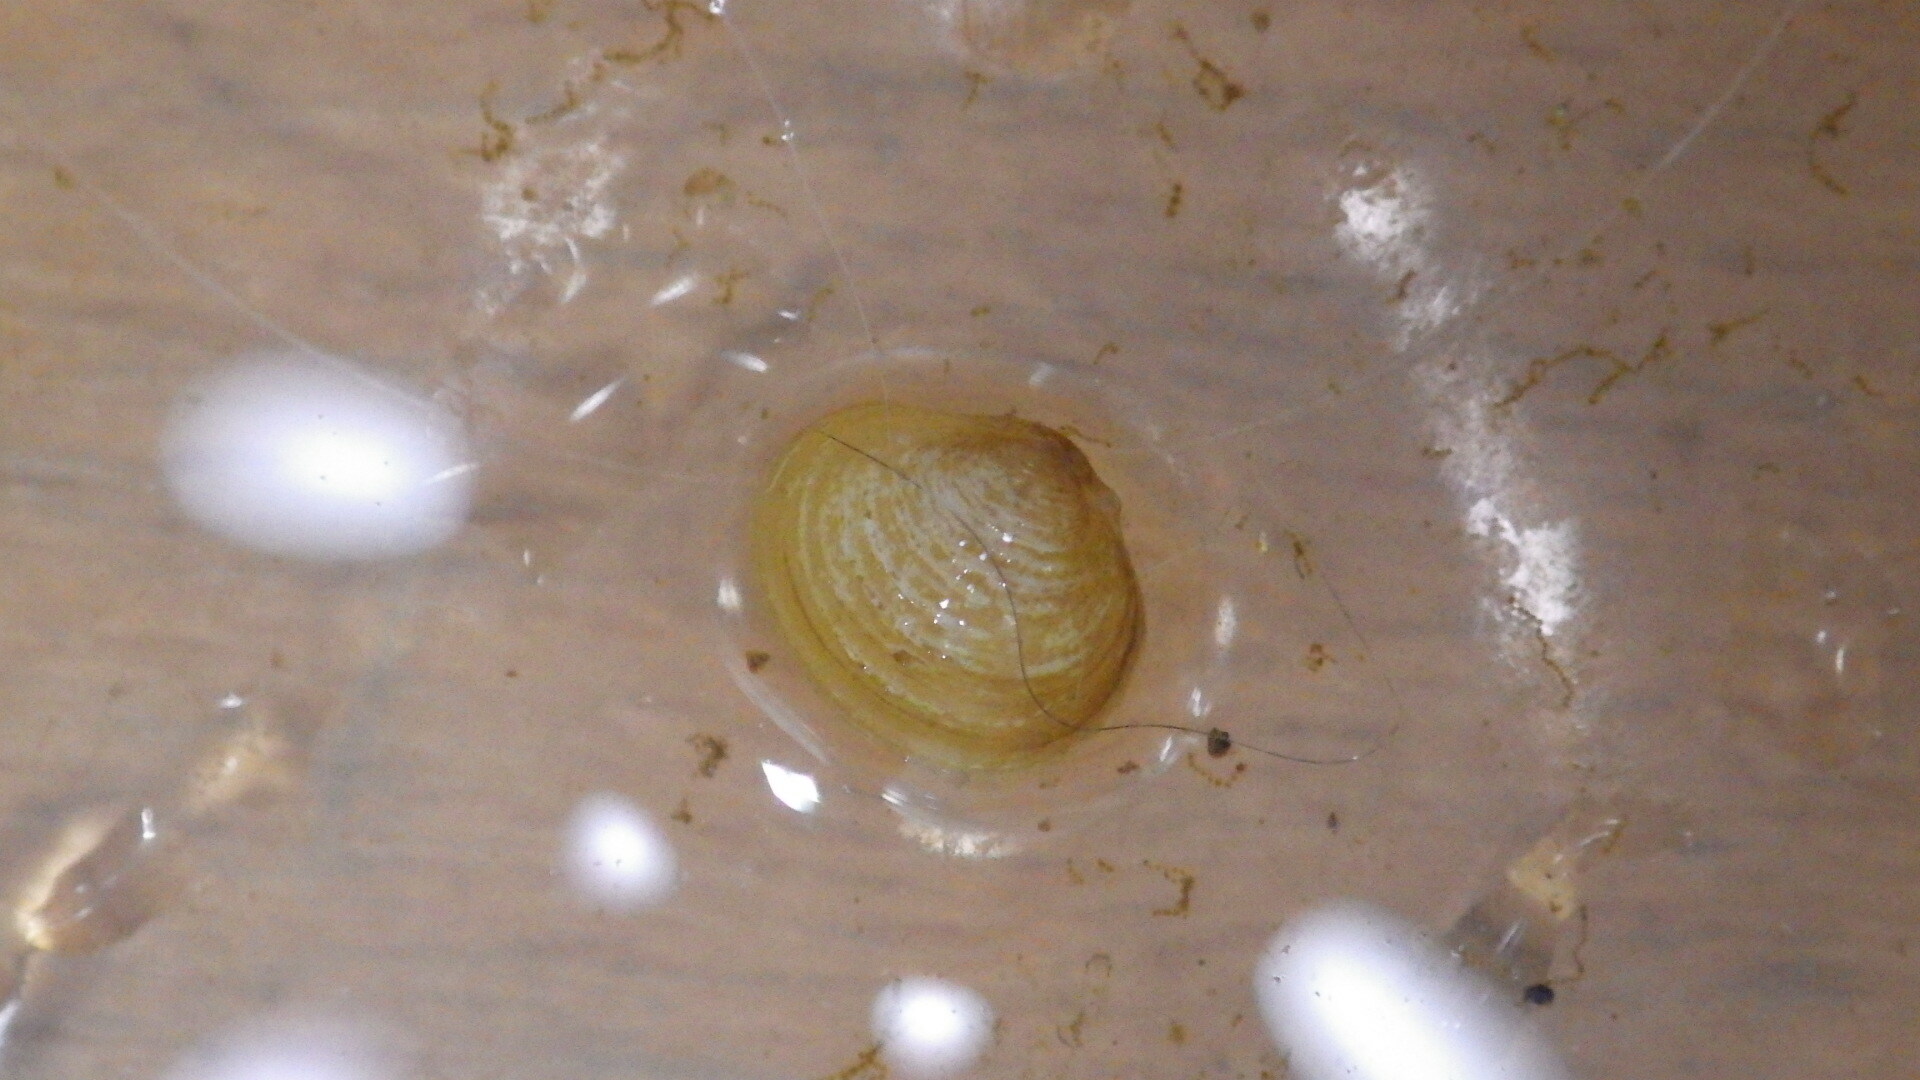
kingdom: Animalia
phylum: Mollusca
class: Bivalvia
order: Venerida
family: Cyrenidae
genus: Corbicula
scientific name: Corbicula fluminea
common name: Asian clam
